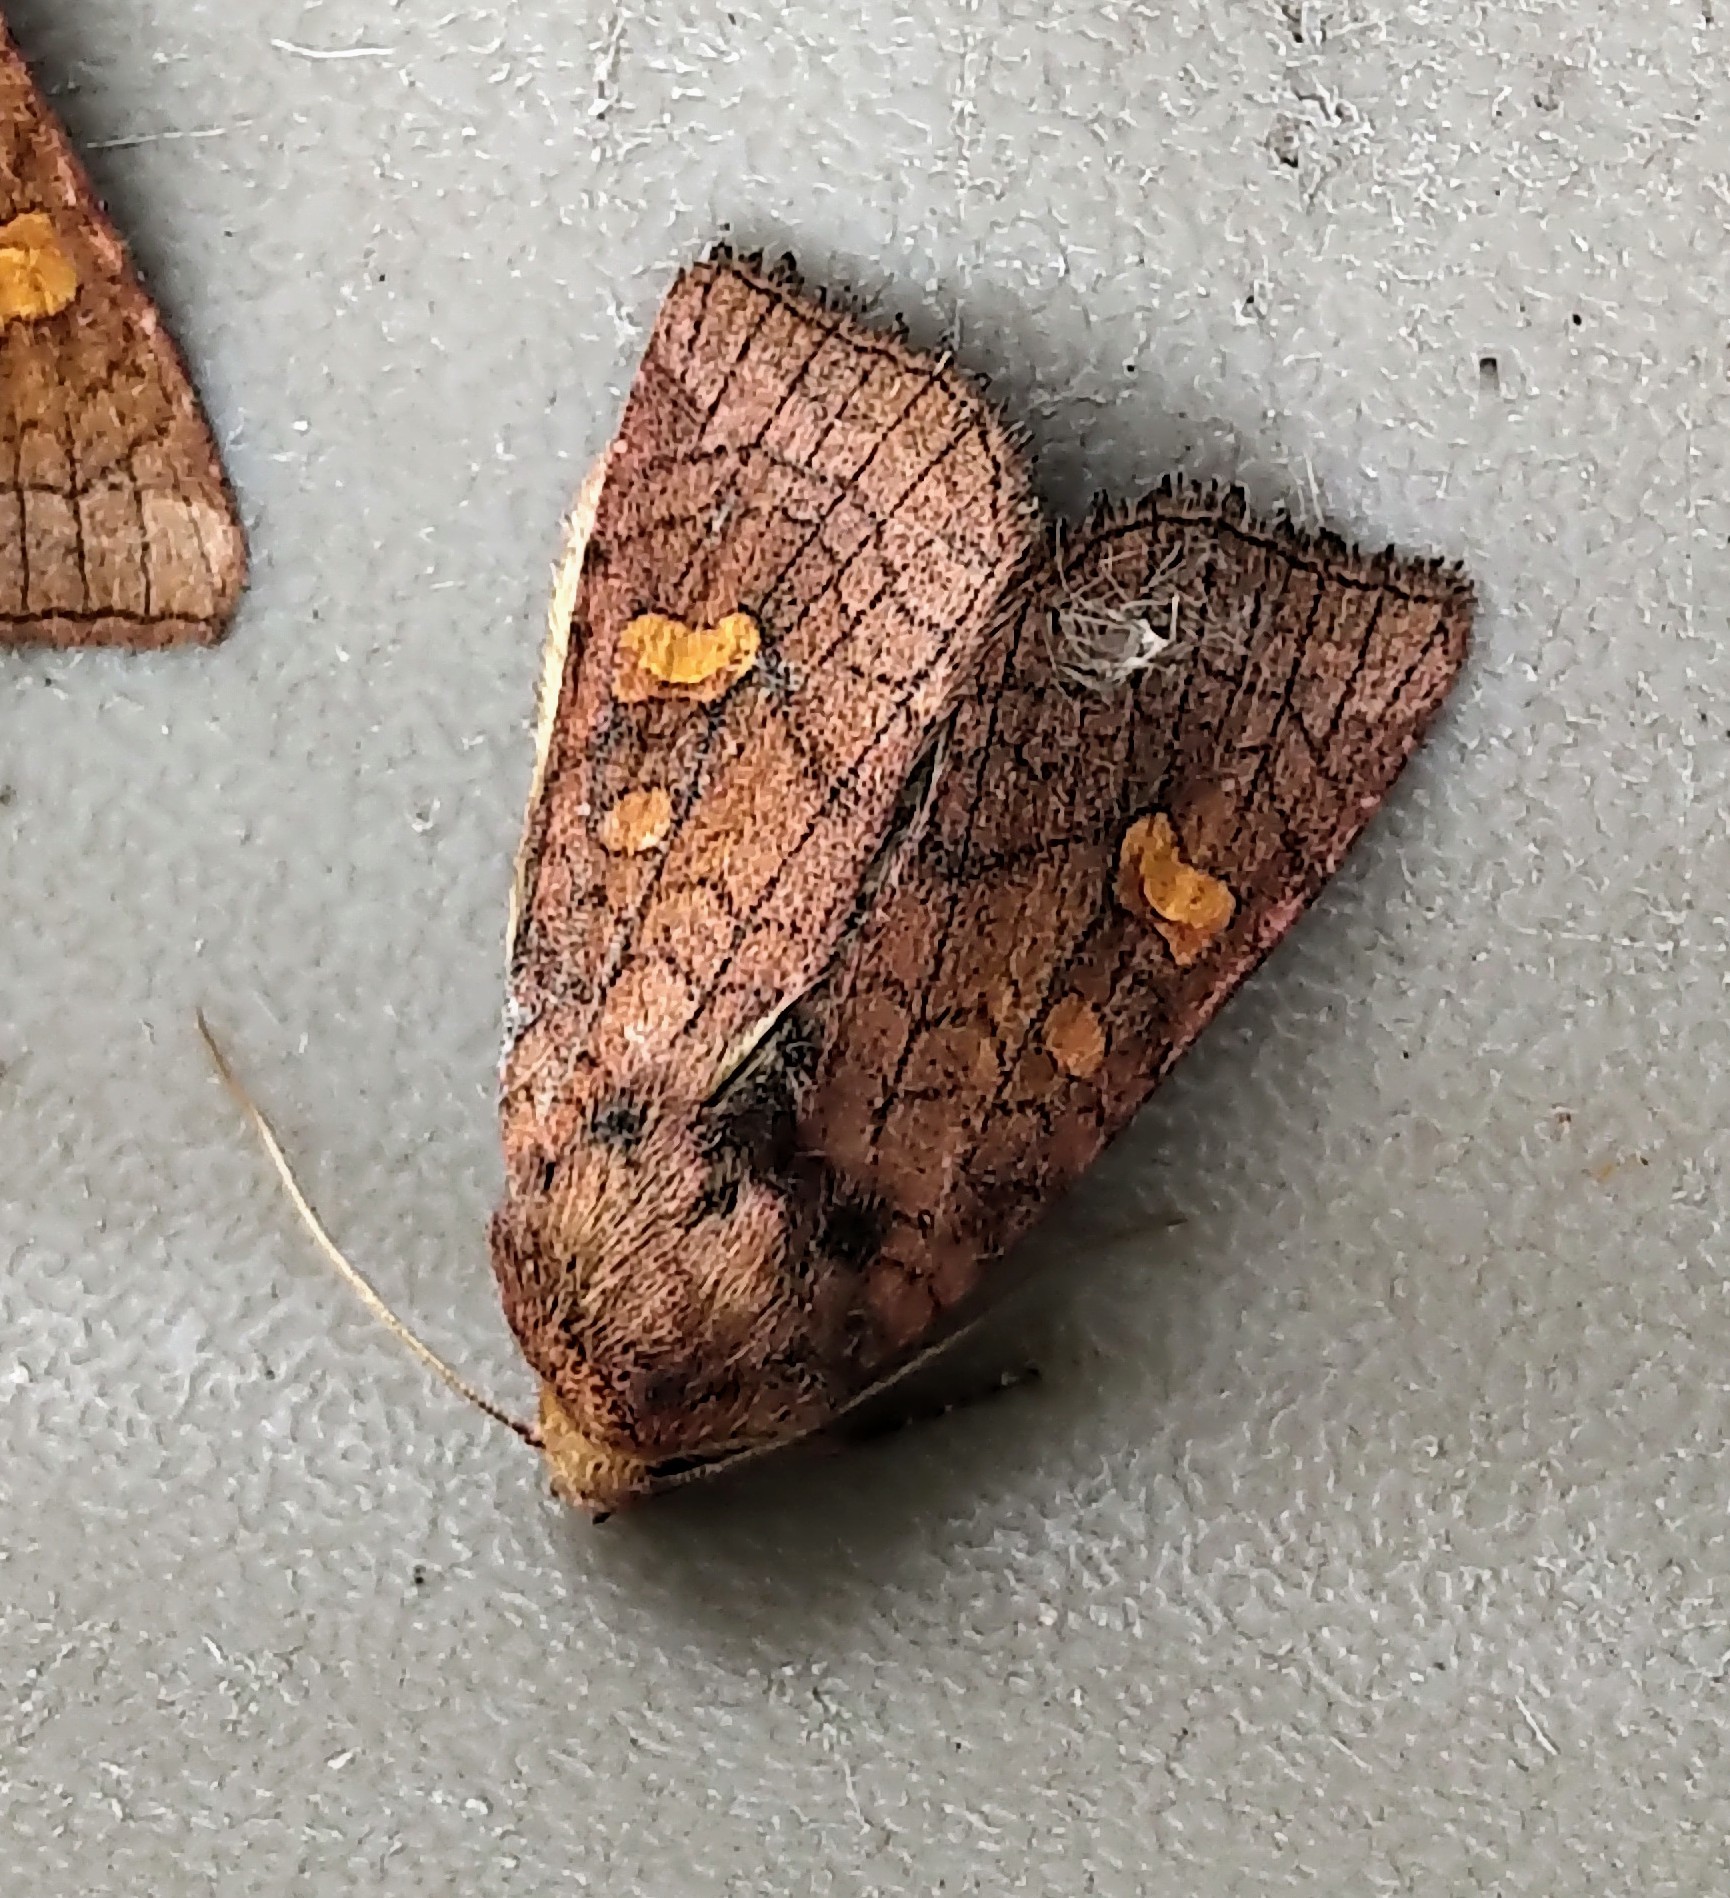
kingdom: Animalia
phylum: Arthropoda
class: Insecta
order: Lepidoptera
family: Noctuidae
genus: Amphipoea
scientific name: Amphipoea americana
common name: American ear moth
